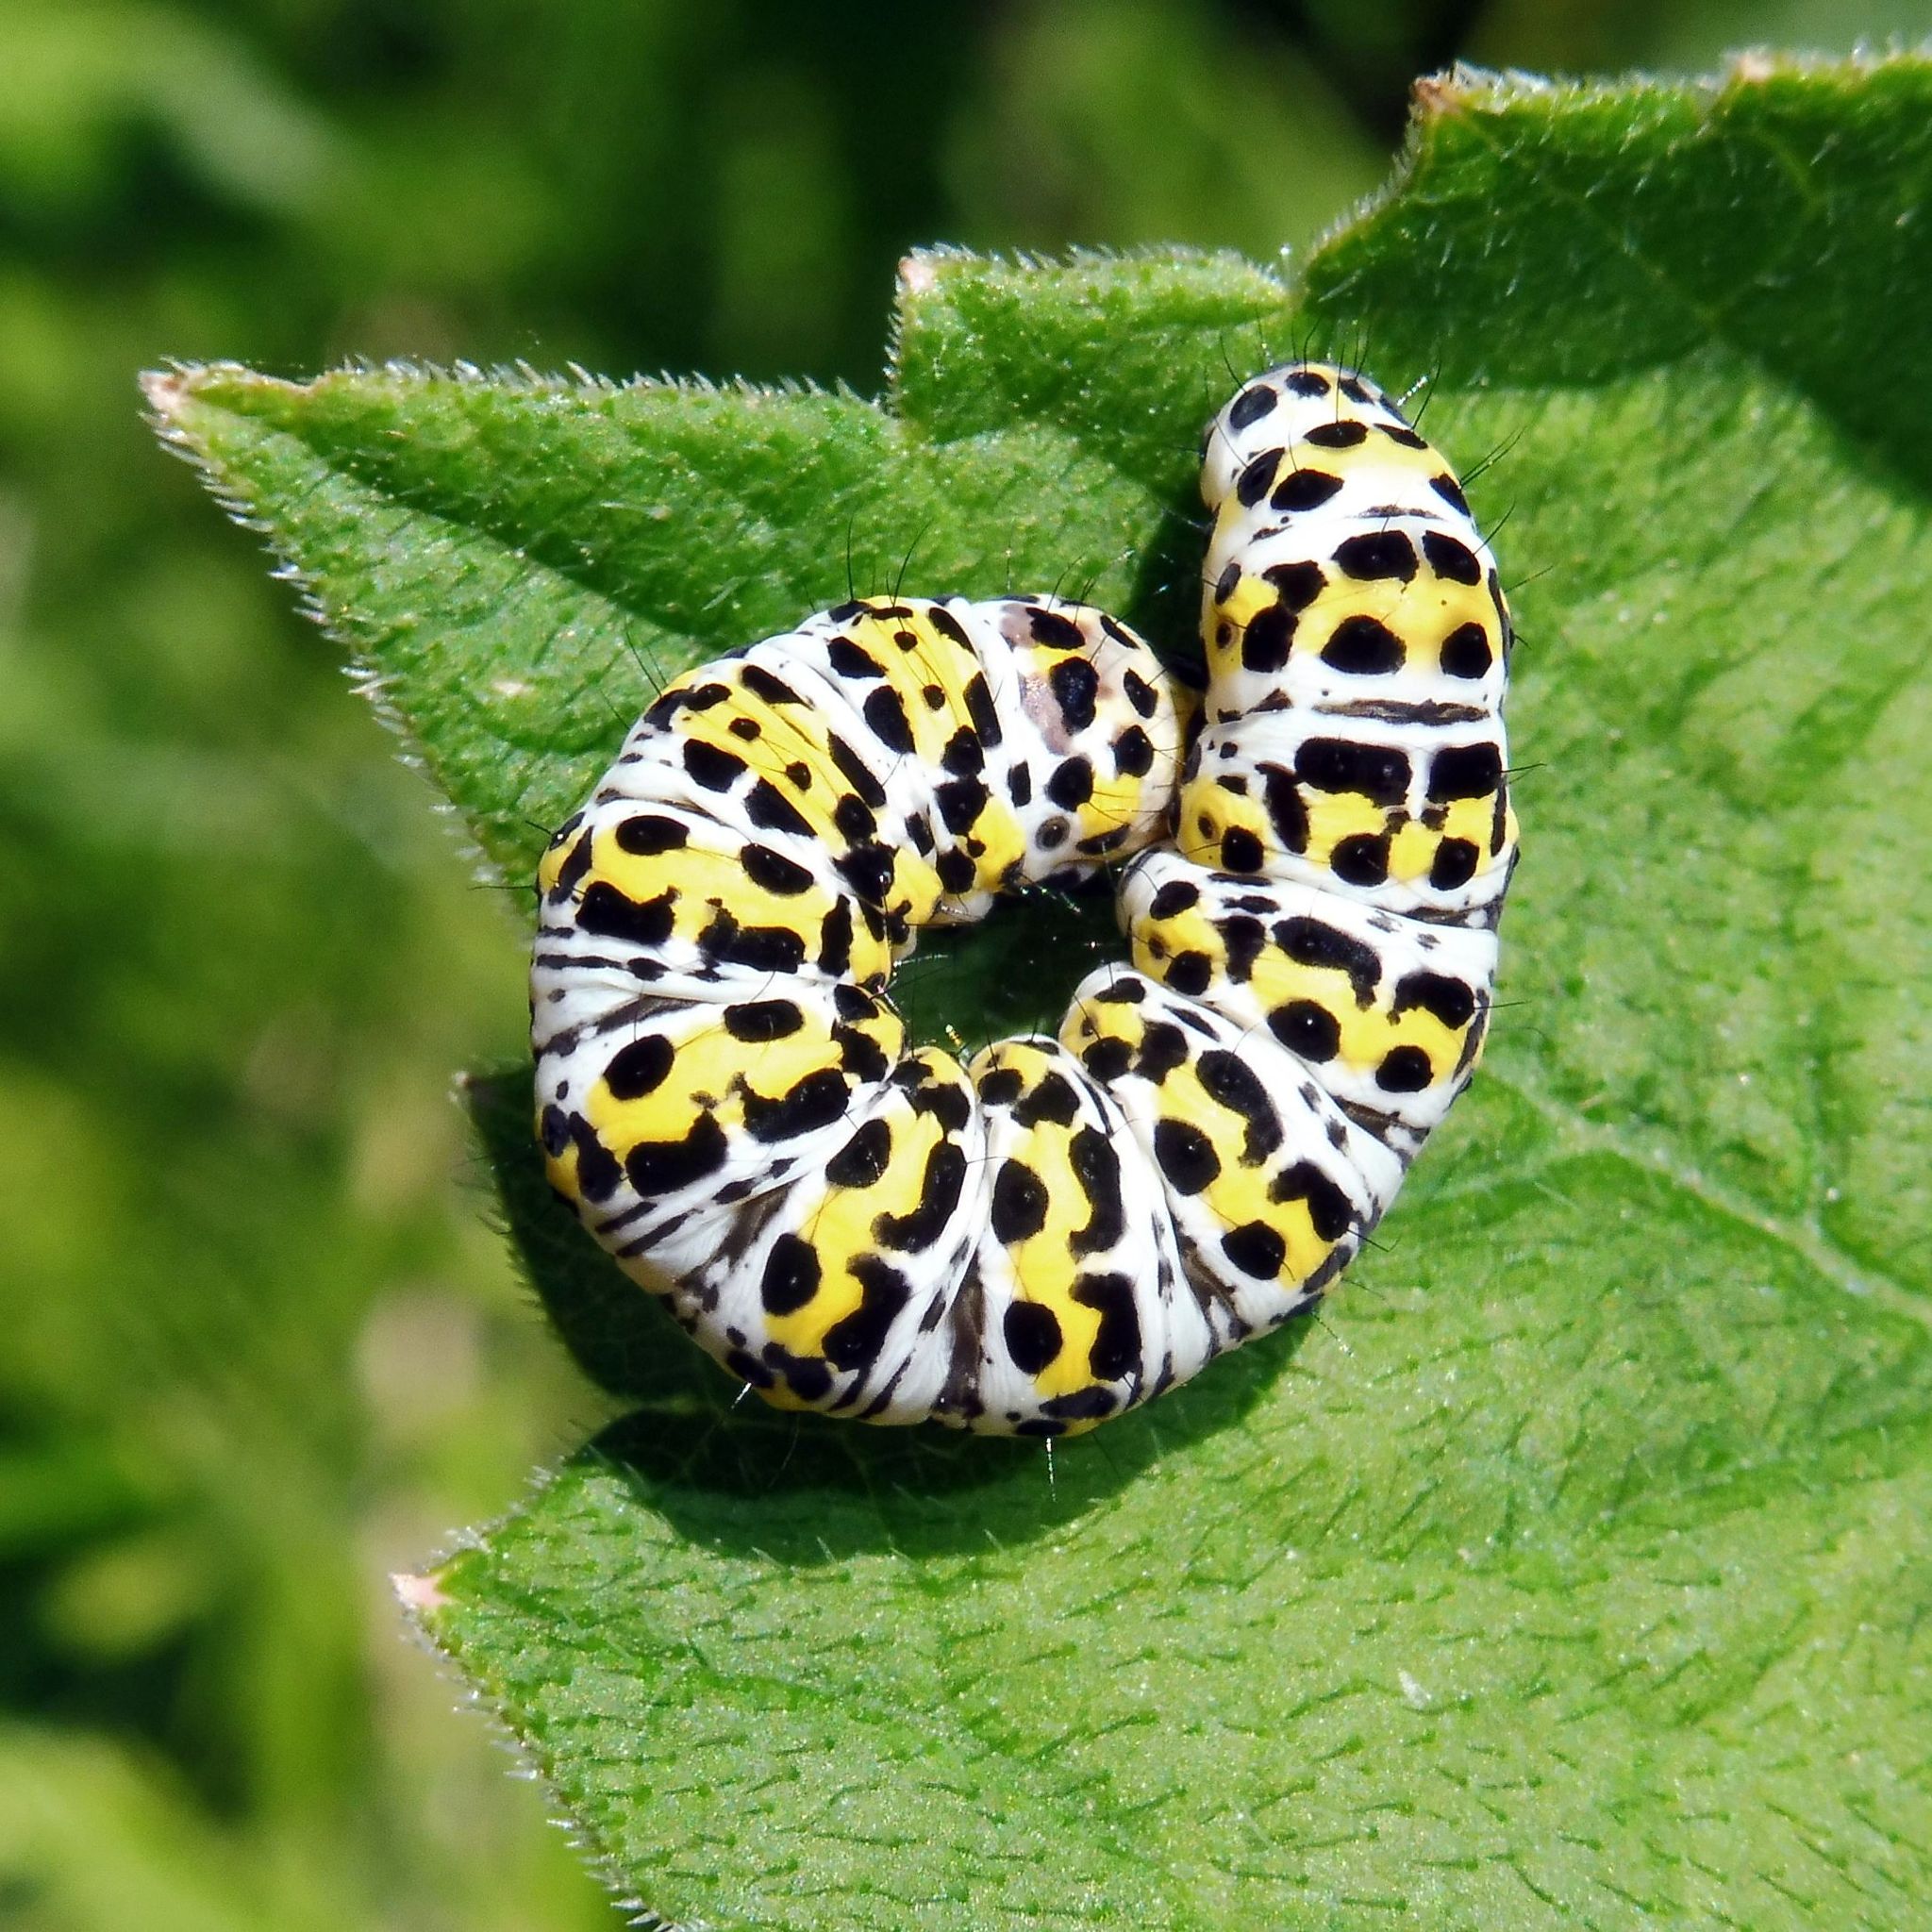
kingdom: Animalia
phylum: Arthropoda
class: Insecta
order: Lepidoptera
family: Noctuidae
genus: Cucullia
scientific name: Cucullia verbasci
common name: Mullein
